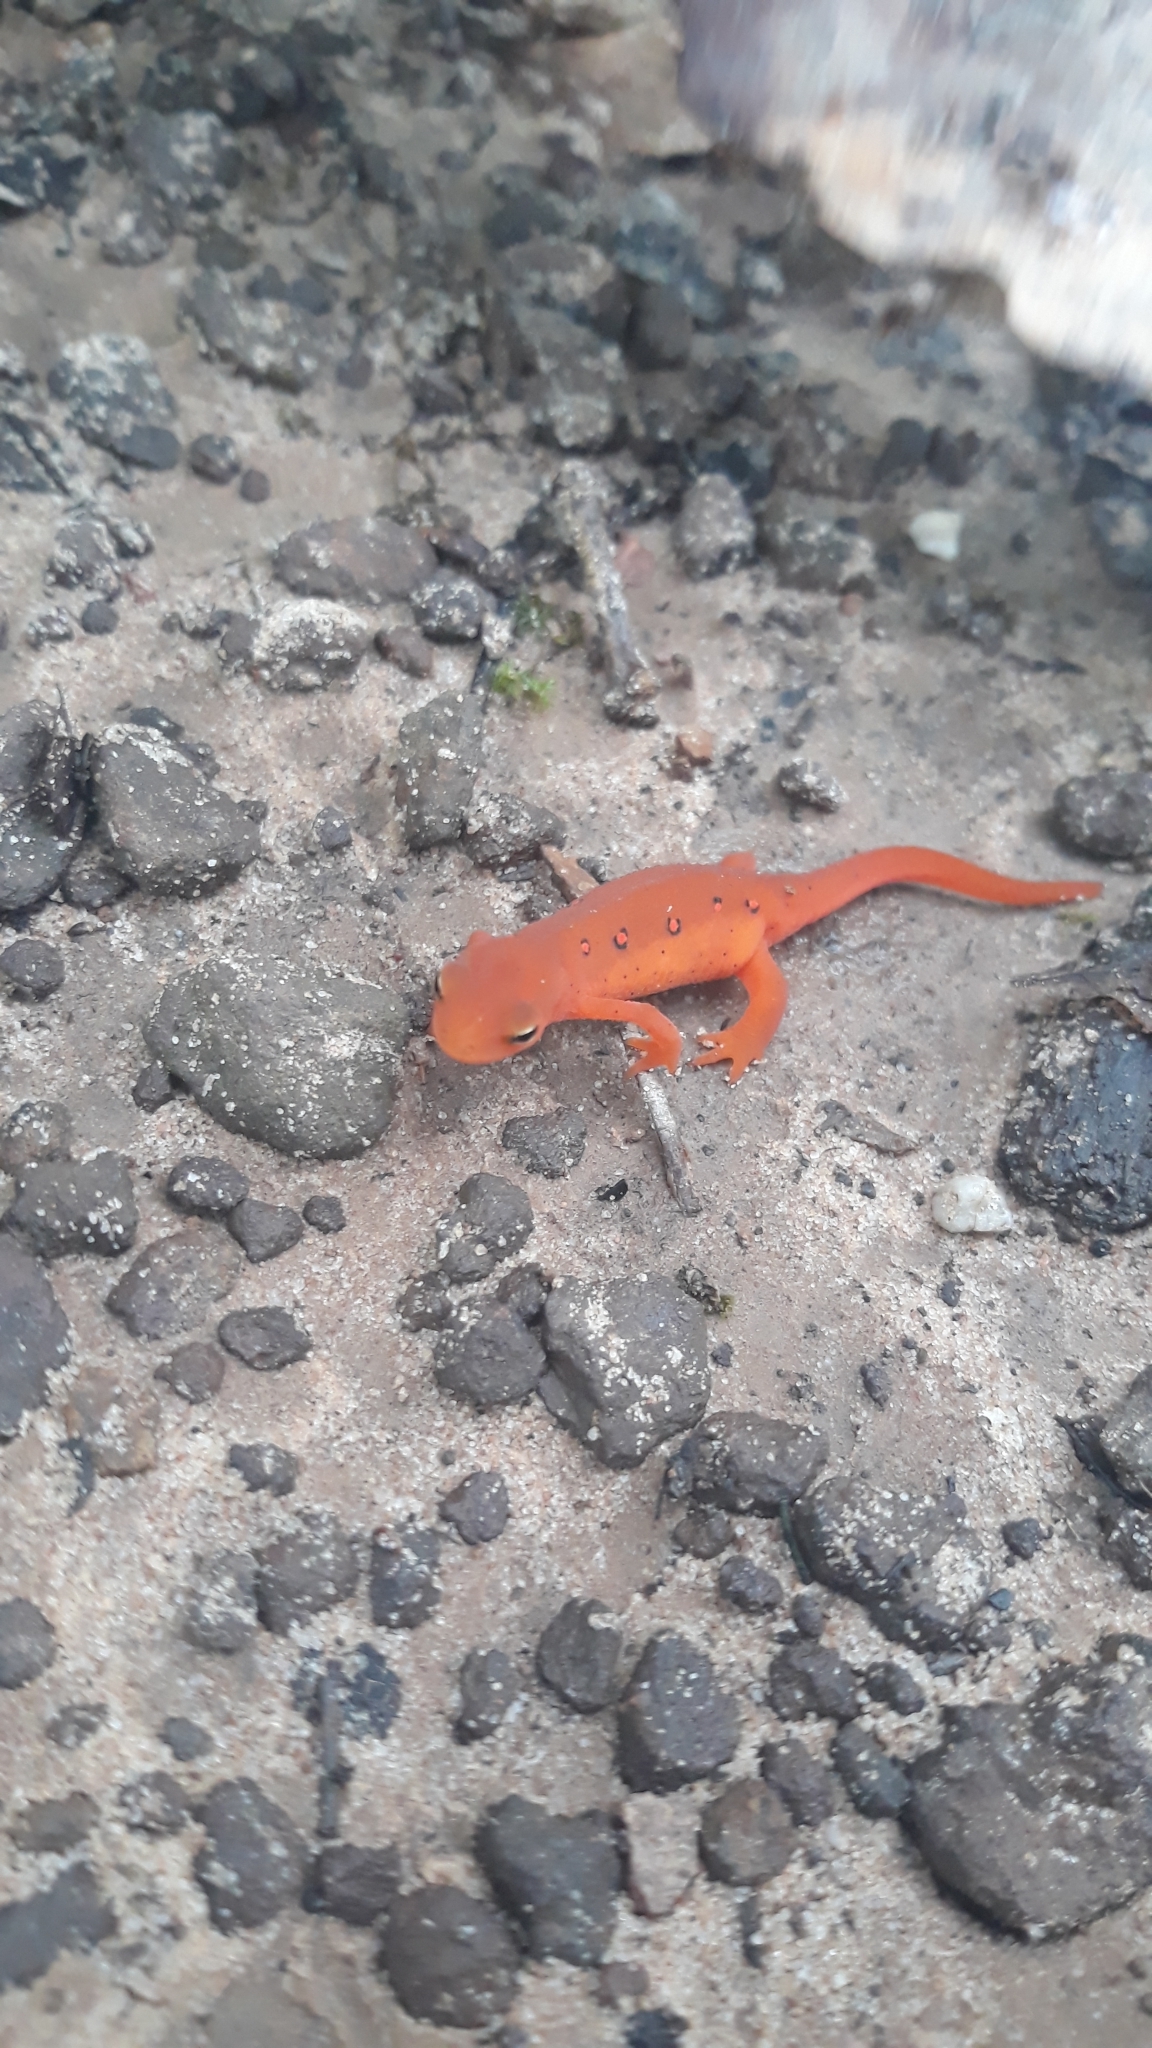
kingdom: Animalia
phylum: Chordata
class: Amphibia
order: Caudata
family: Salamandridae
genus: Notophthalmus
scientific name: Notophthalmus viridescens
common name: Eastern newt
